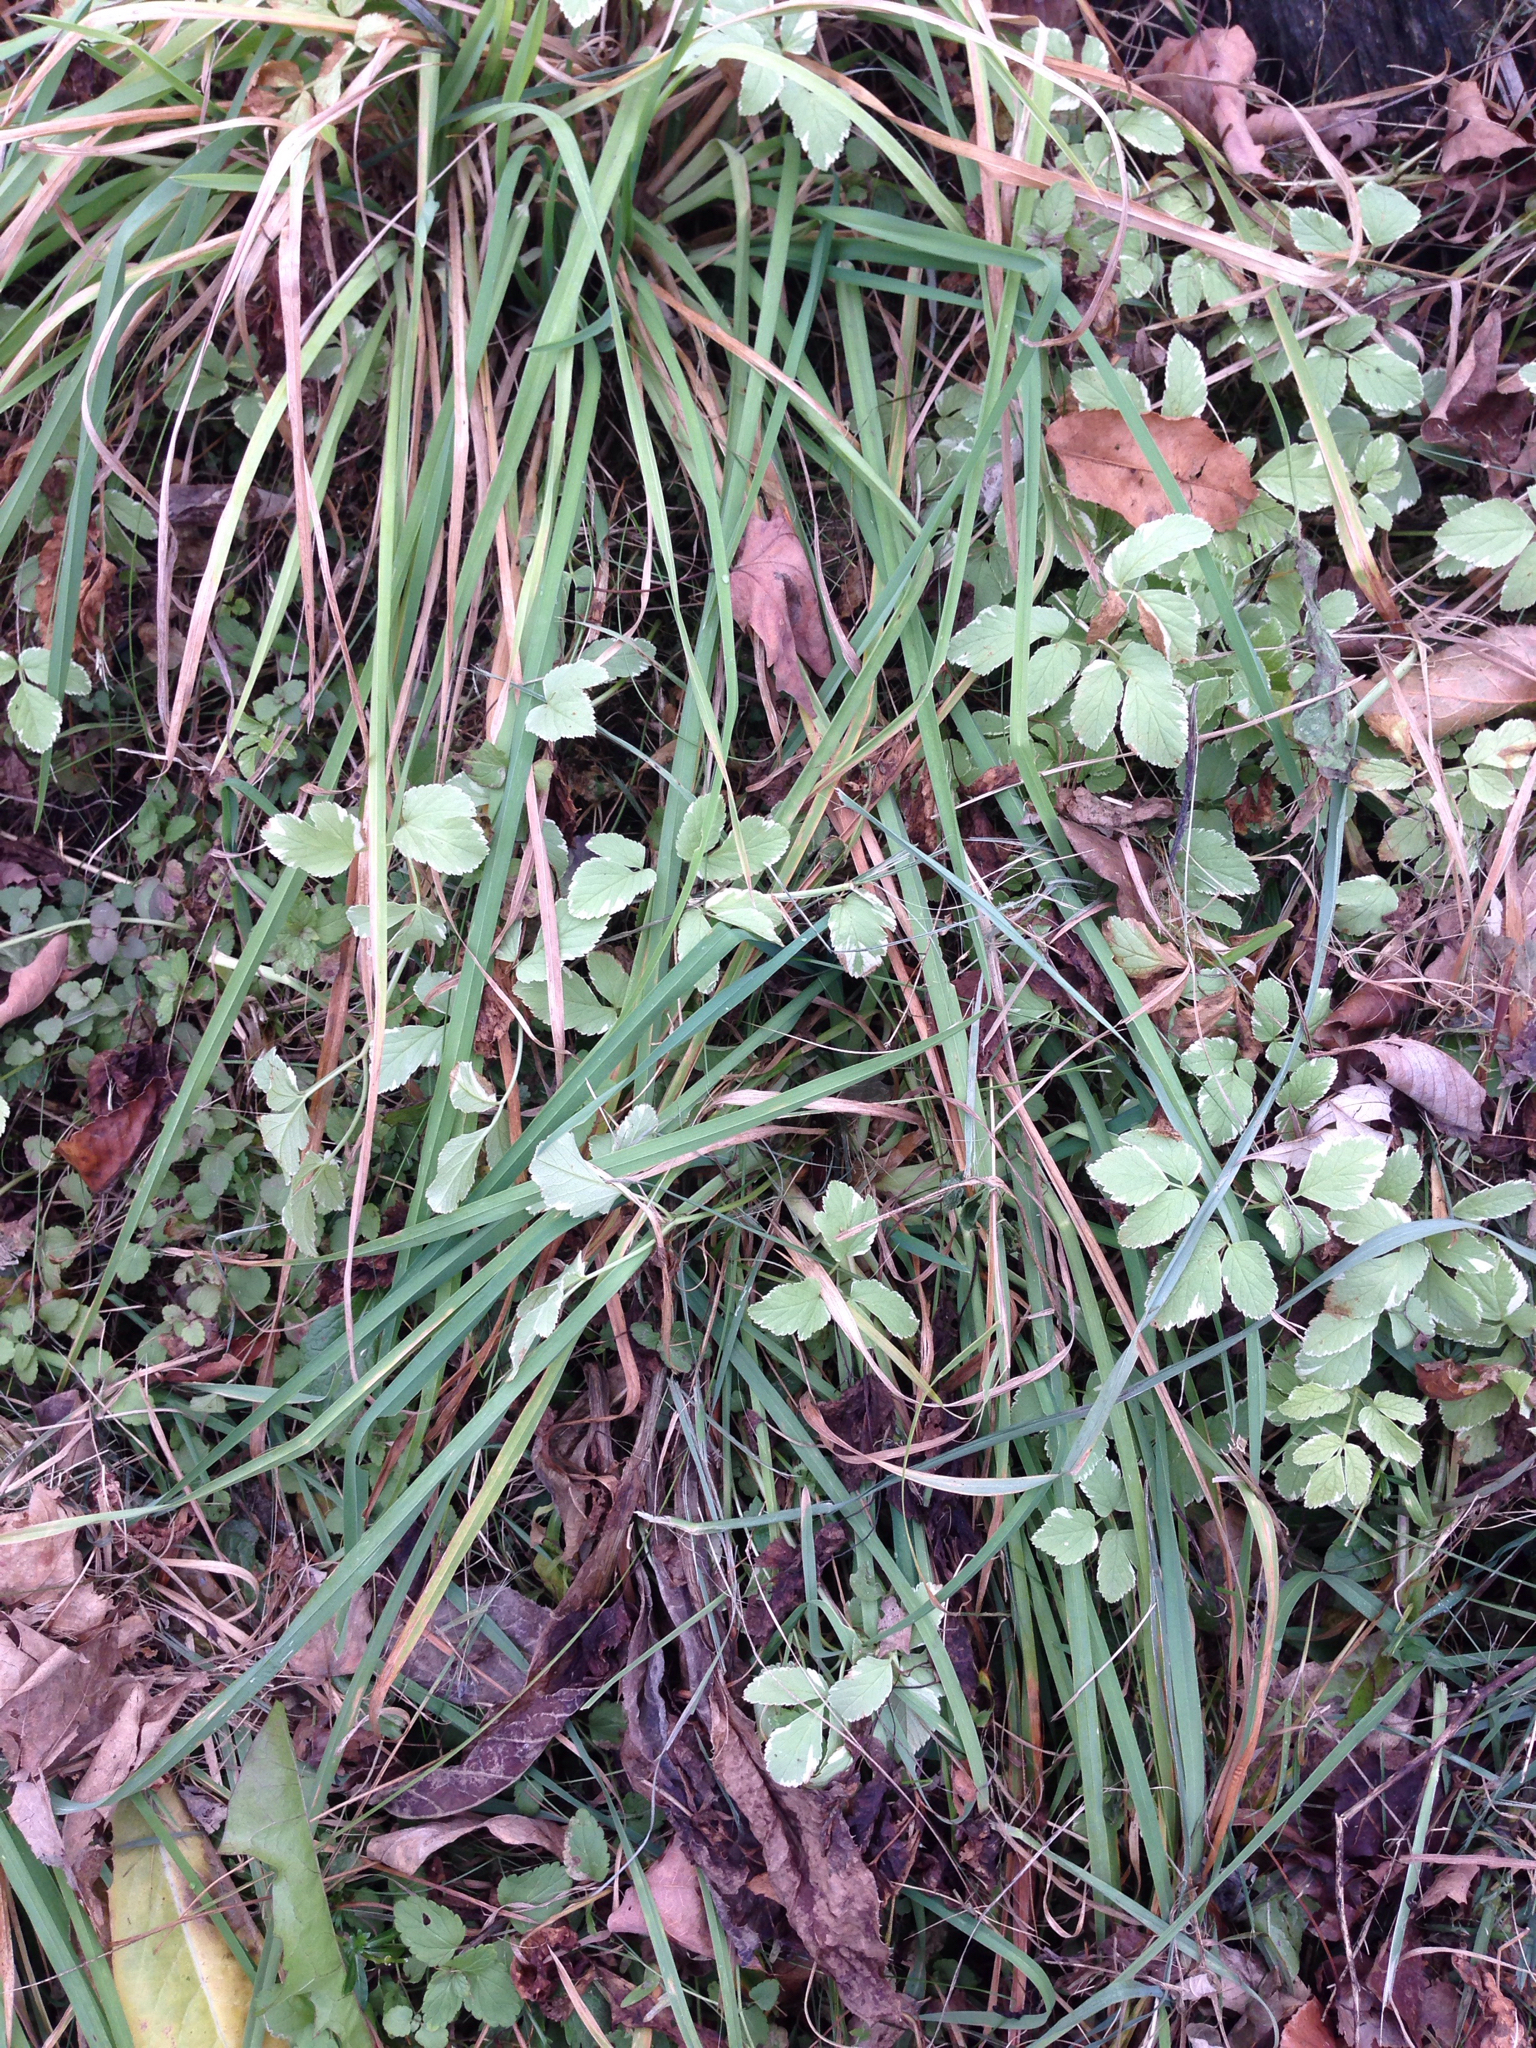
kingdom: Plantae
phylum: Tracheophyta
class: Magnoliopsida
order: Apiales
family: Apiaceae
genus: Aegopodium
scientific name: Aegopodium podagraria
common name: Ground-elder
